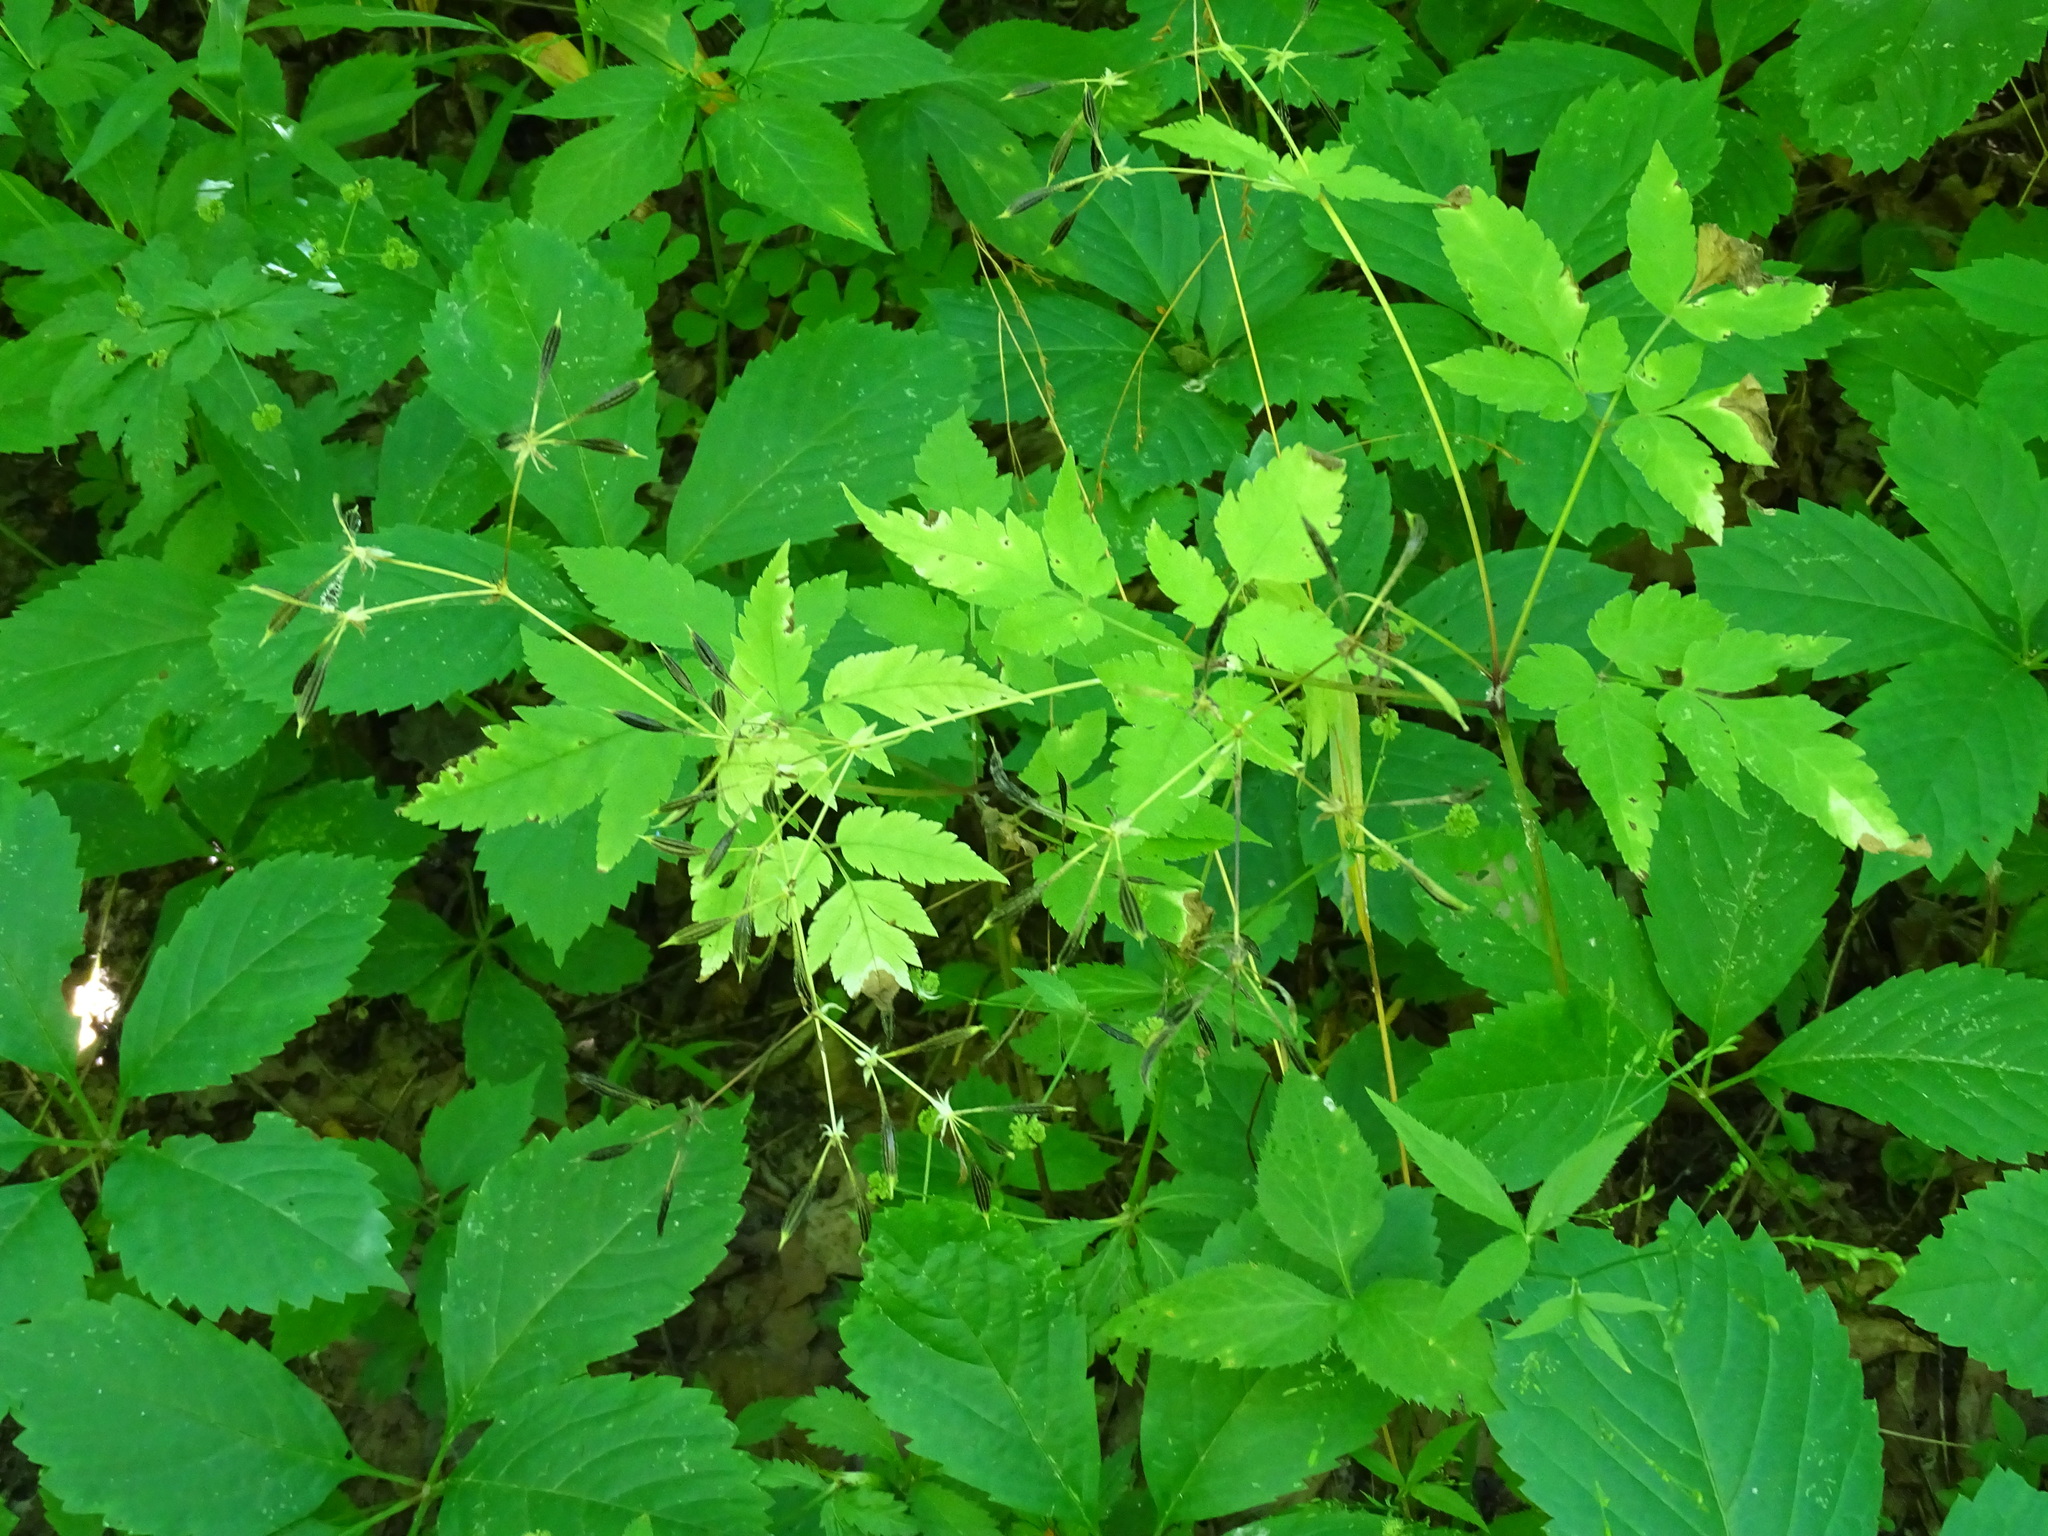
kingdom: Plantae
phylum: Tracheophyta
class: Magnoliopsida
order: Apiales
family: Apiaceae
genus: Osmorhiza
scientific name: Osmorhiza longistylis
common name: Smooth sweet cicely
